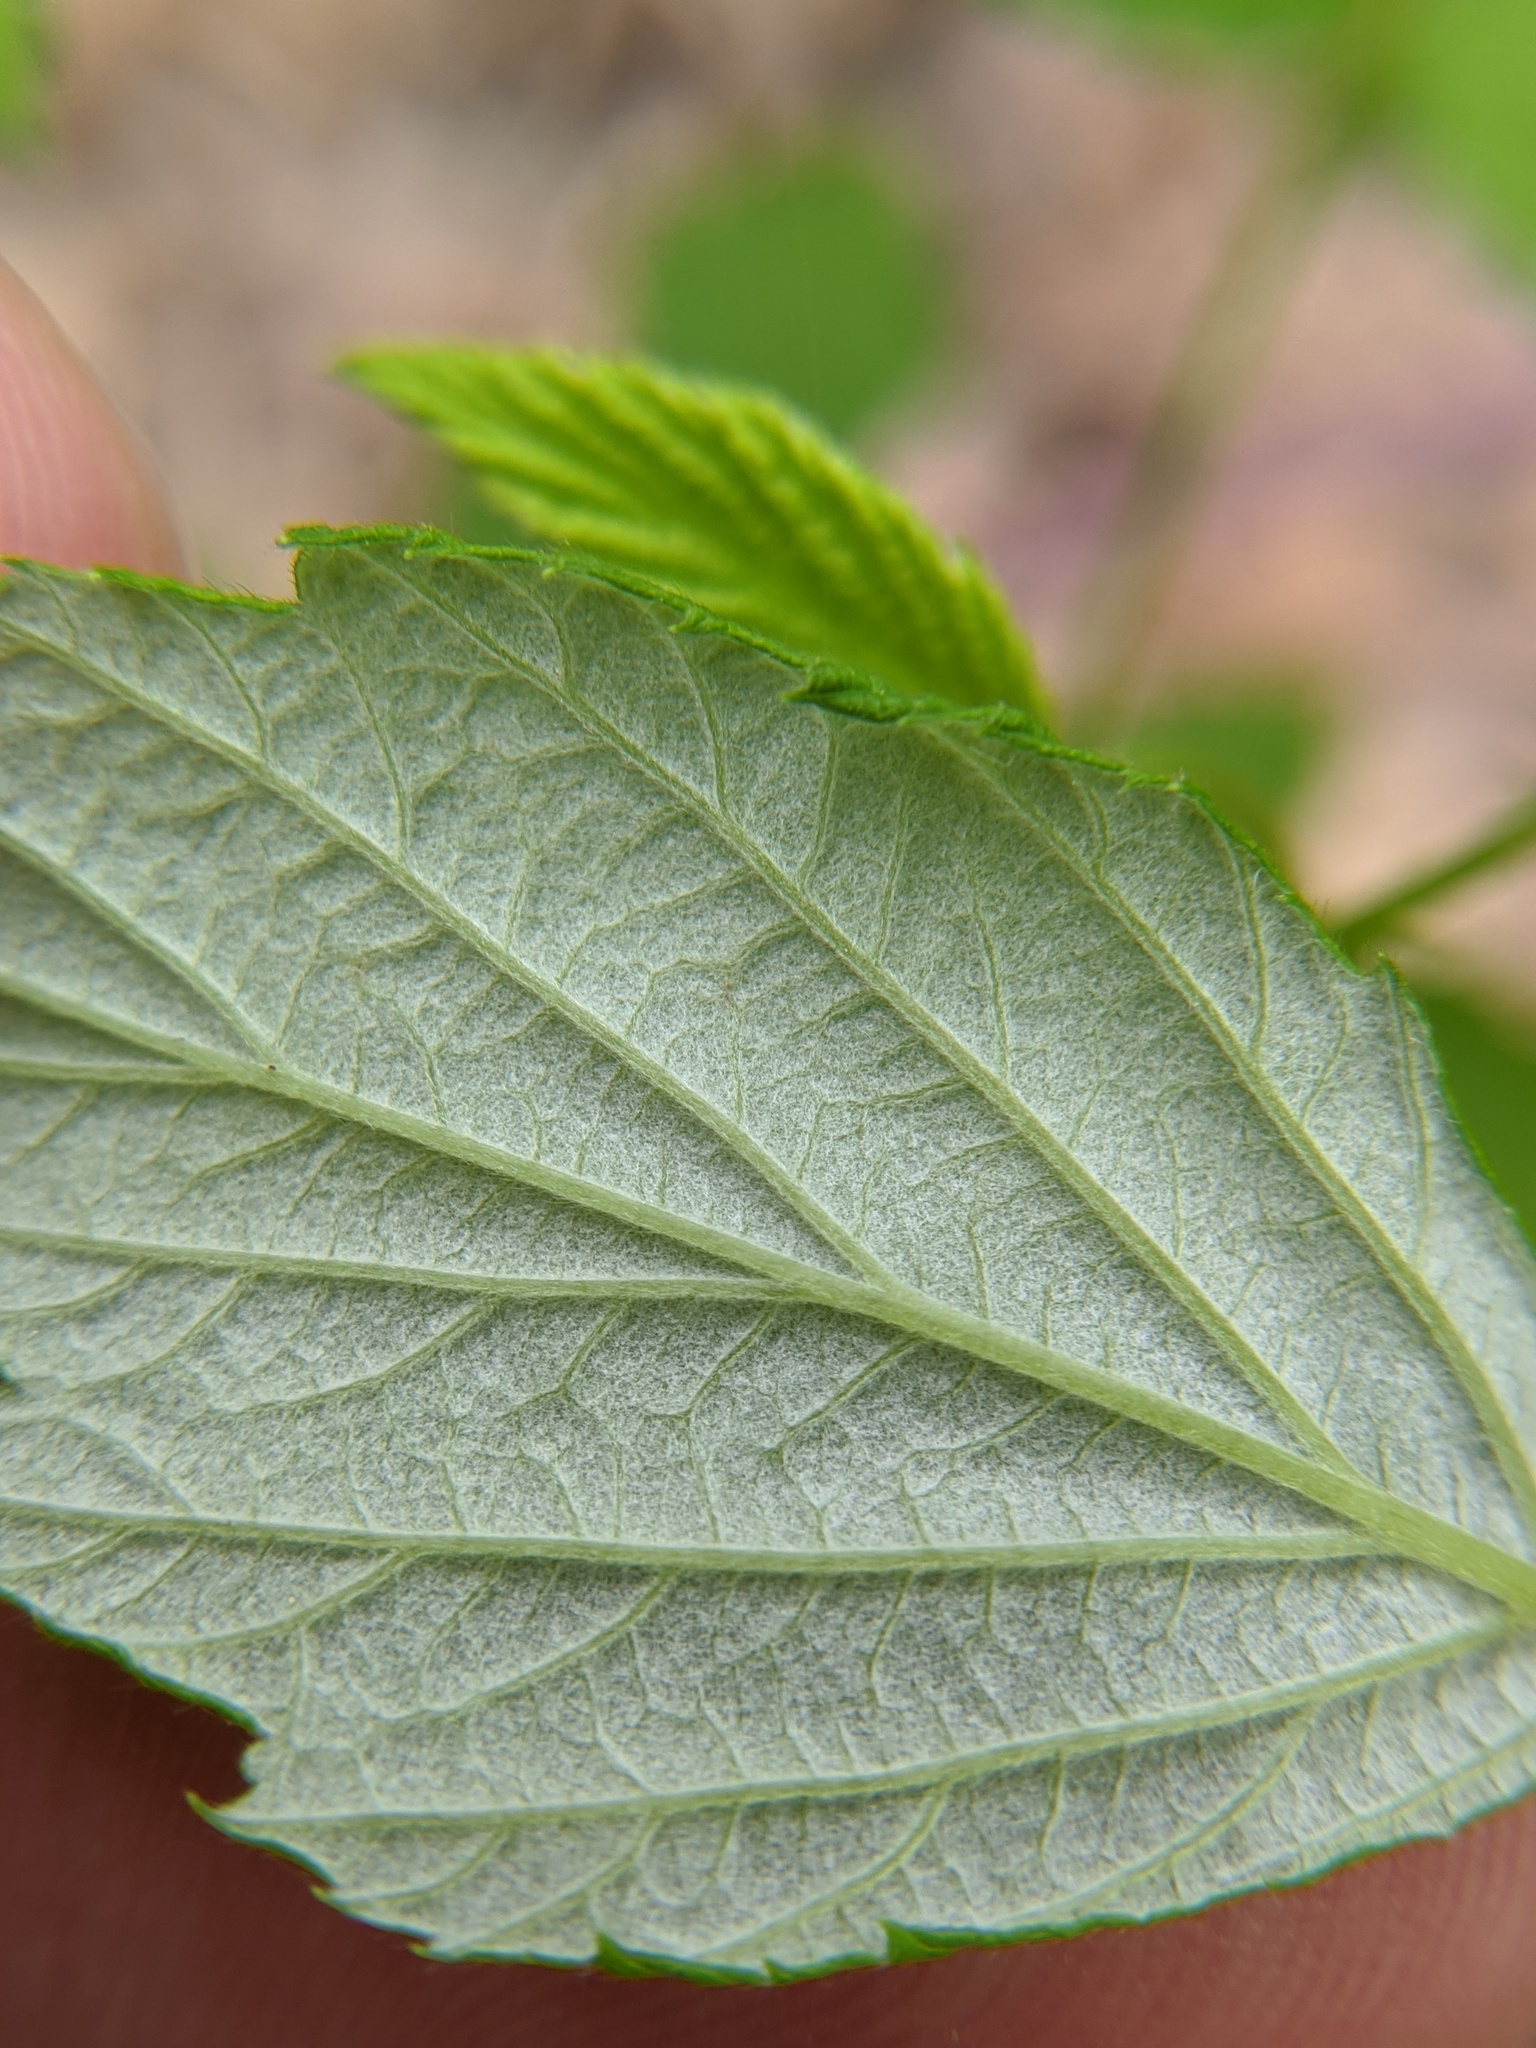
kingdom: Plantae
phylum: Tracheophyta
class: Magnoliopsida
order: Rosales
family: Rosaceae
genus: Rubus
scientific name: Rubus occidentalis
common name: Black raspberry
